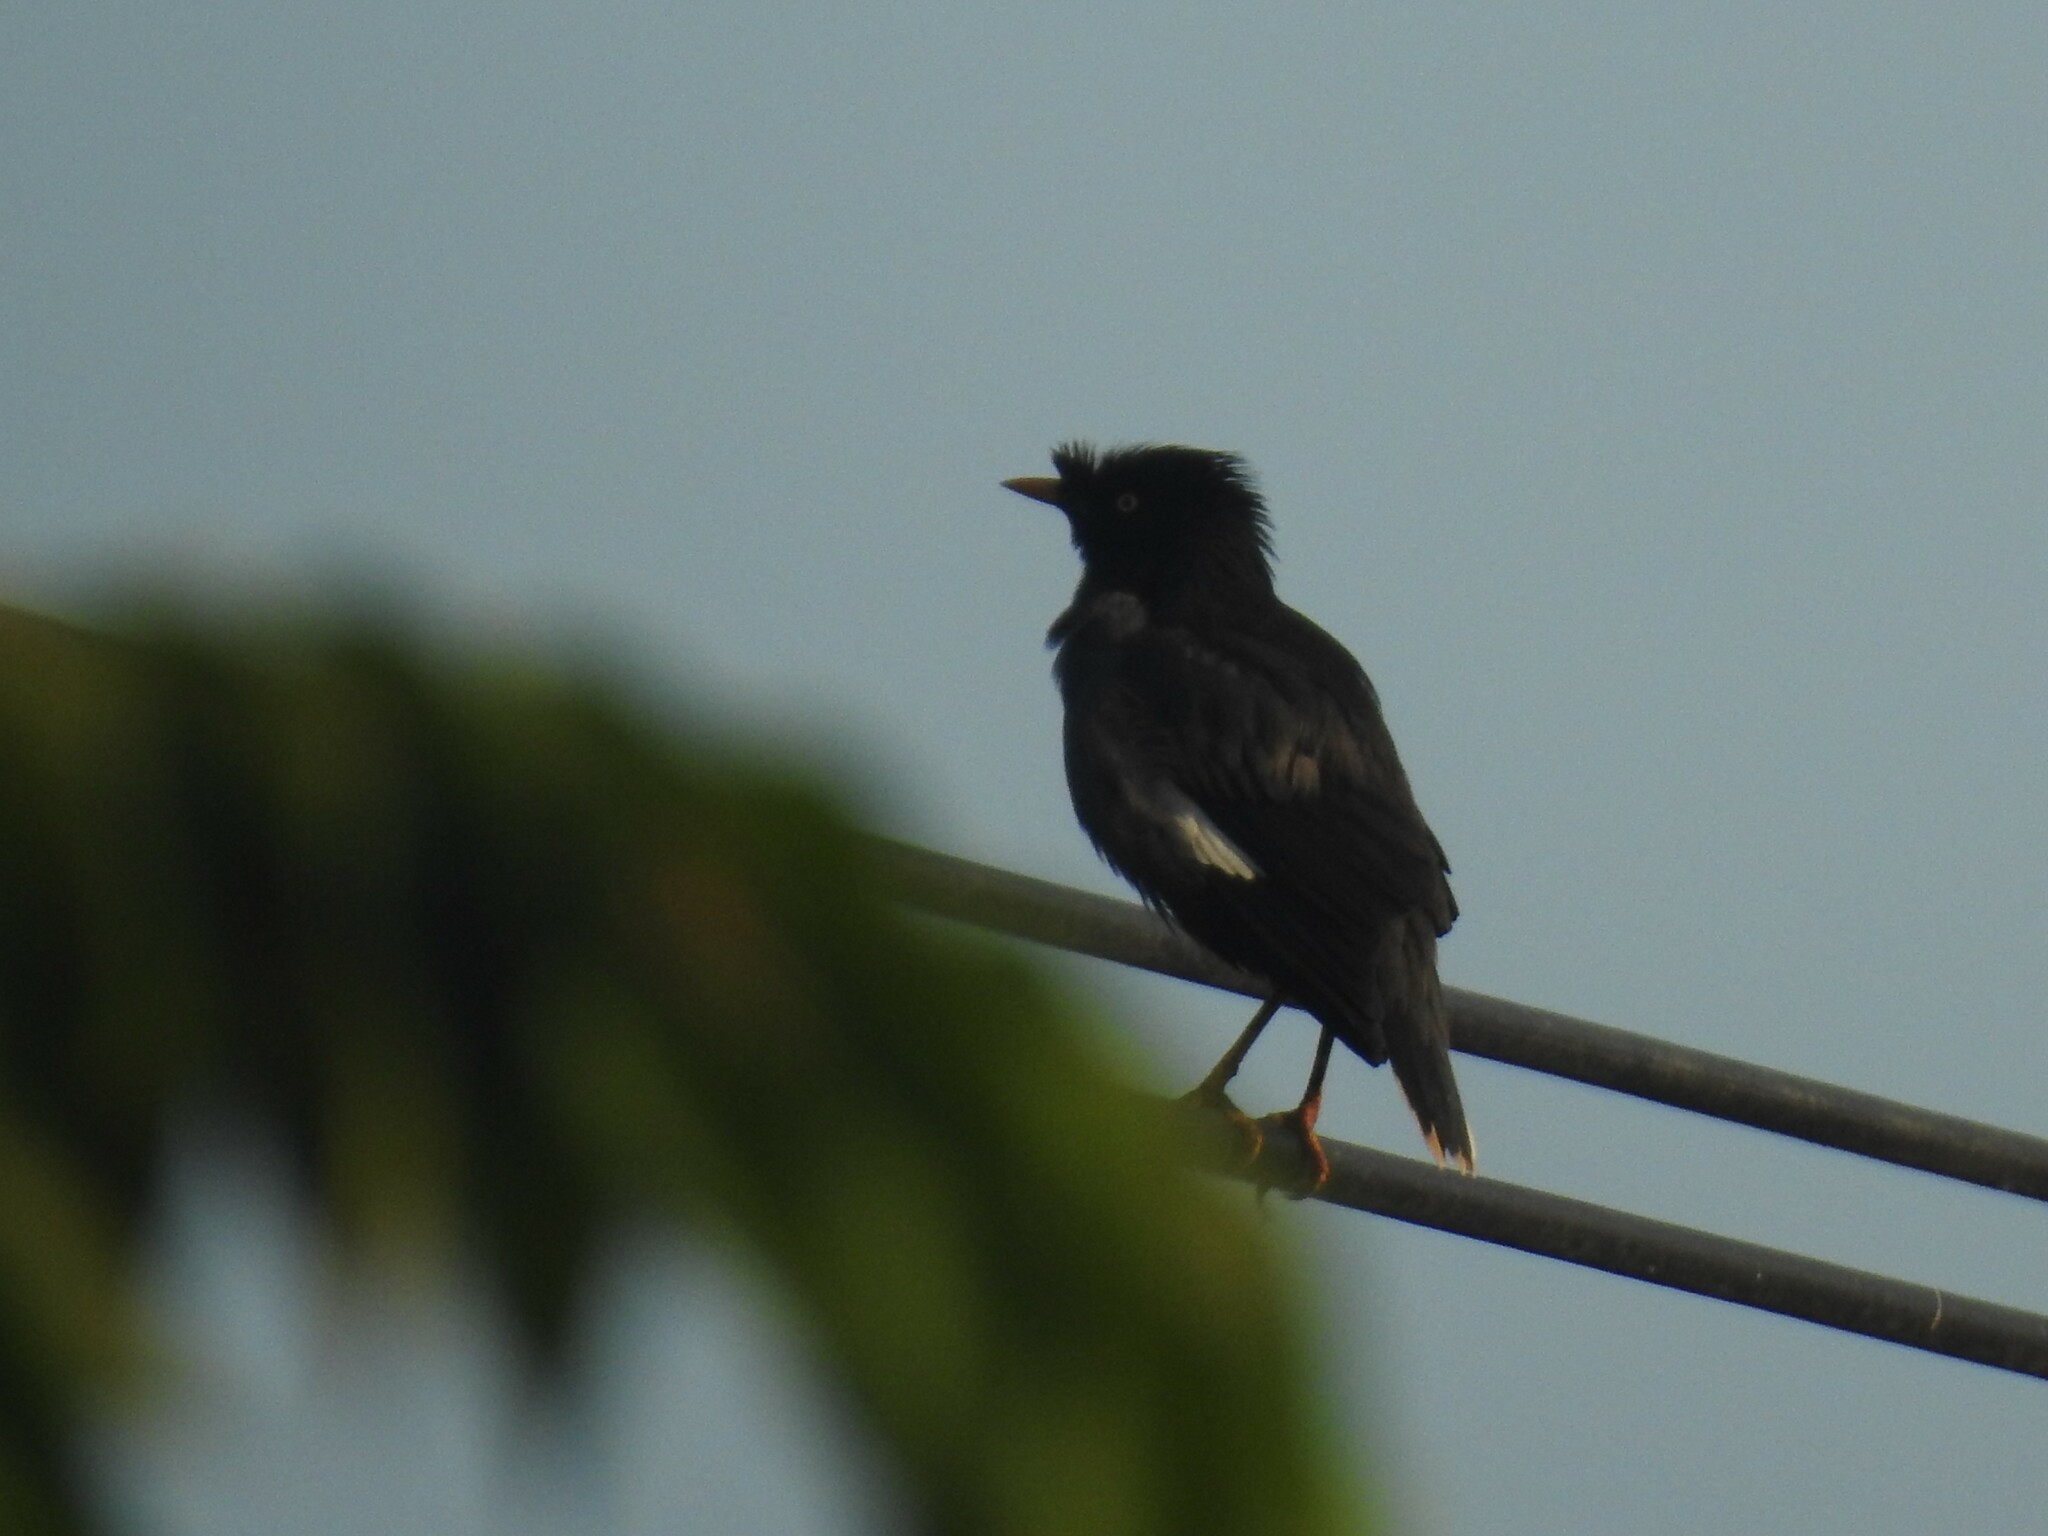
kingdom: Animalia
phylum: Chordata
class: Aves
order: Passeriformes
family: Sturnidae
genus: Acridotheres
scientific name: Acridotheres fuscus
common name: Jungle myna
